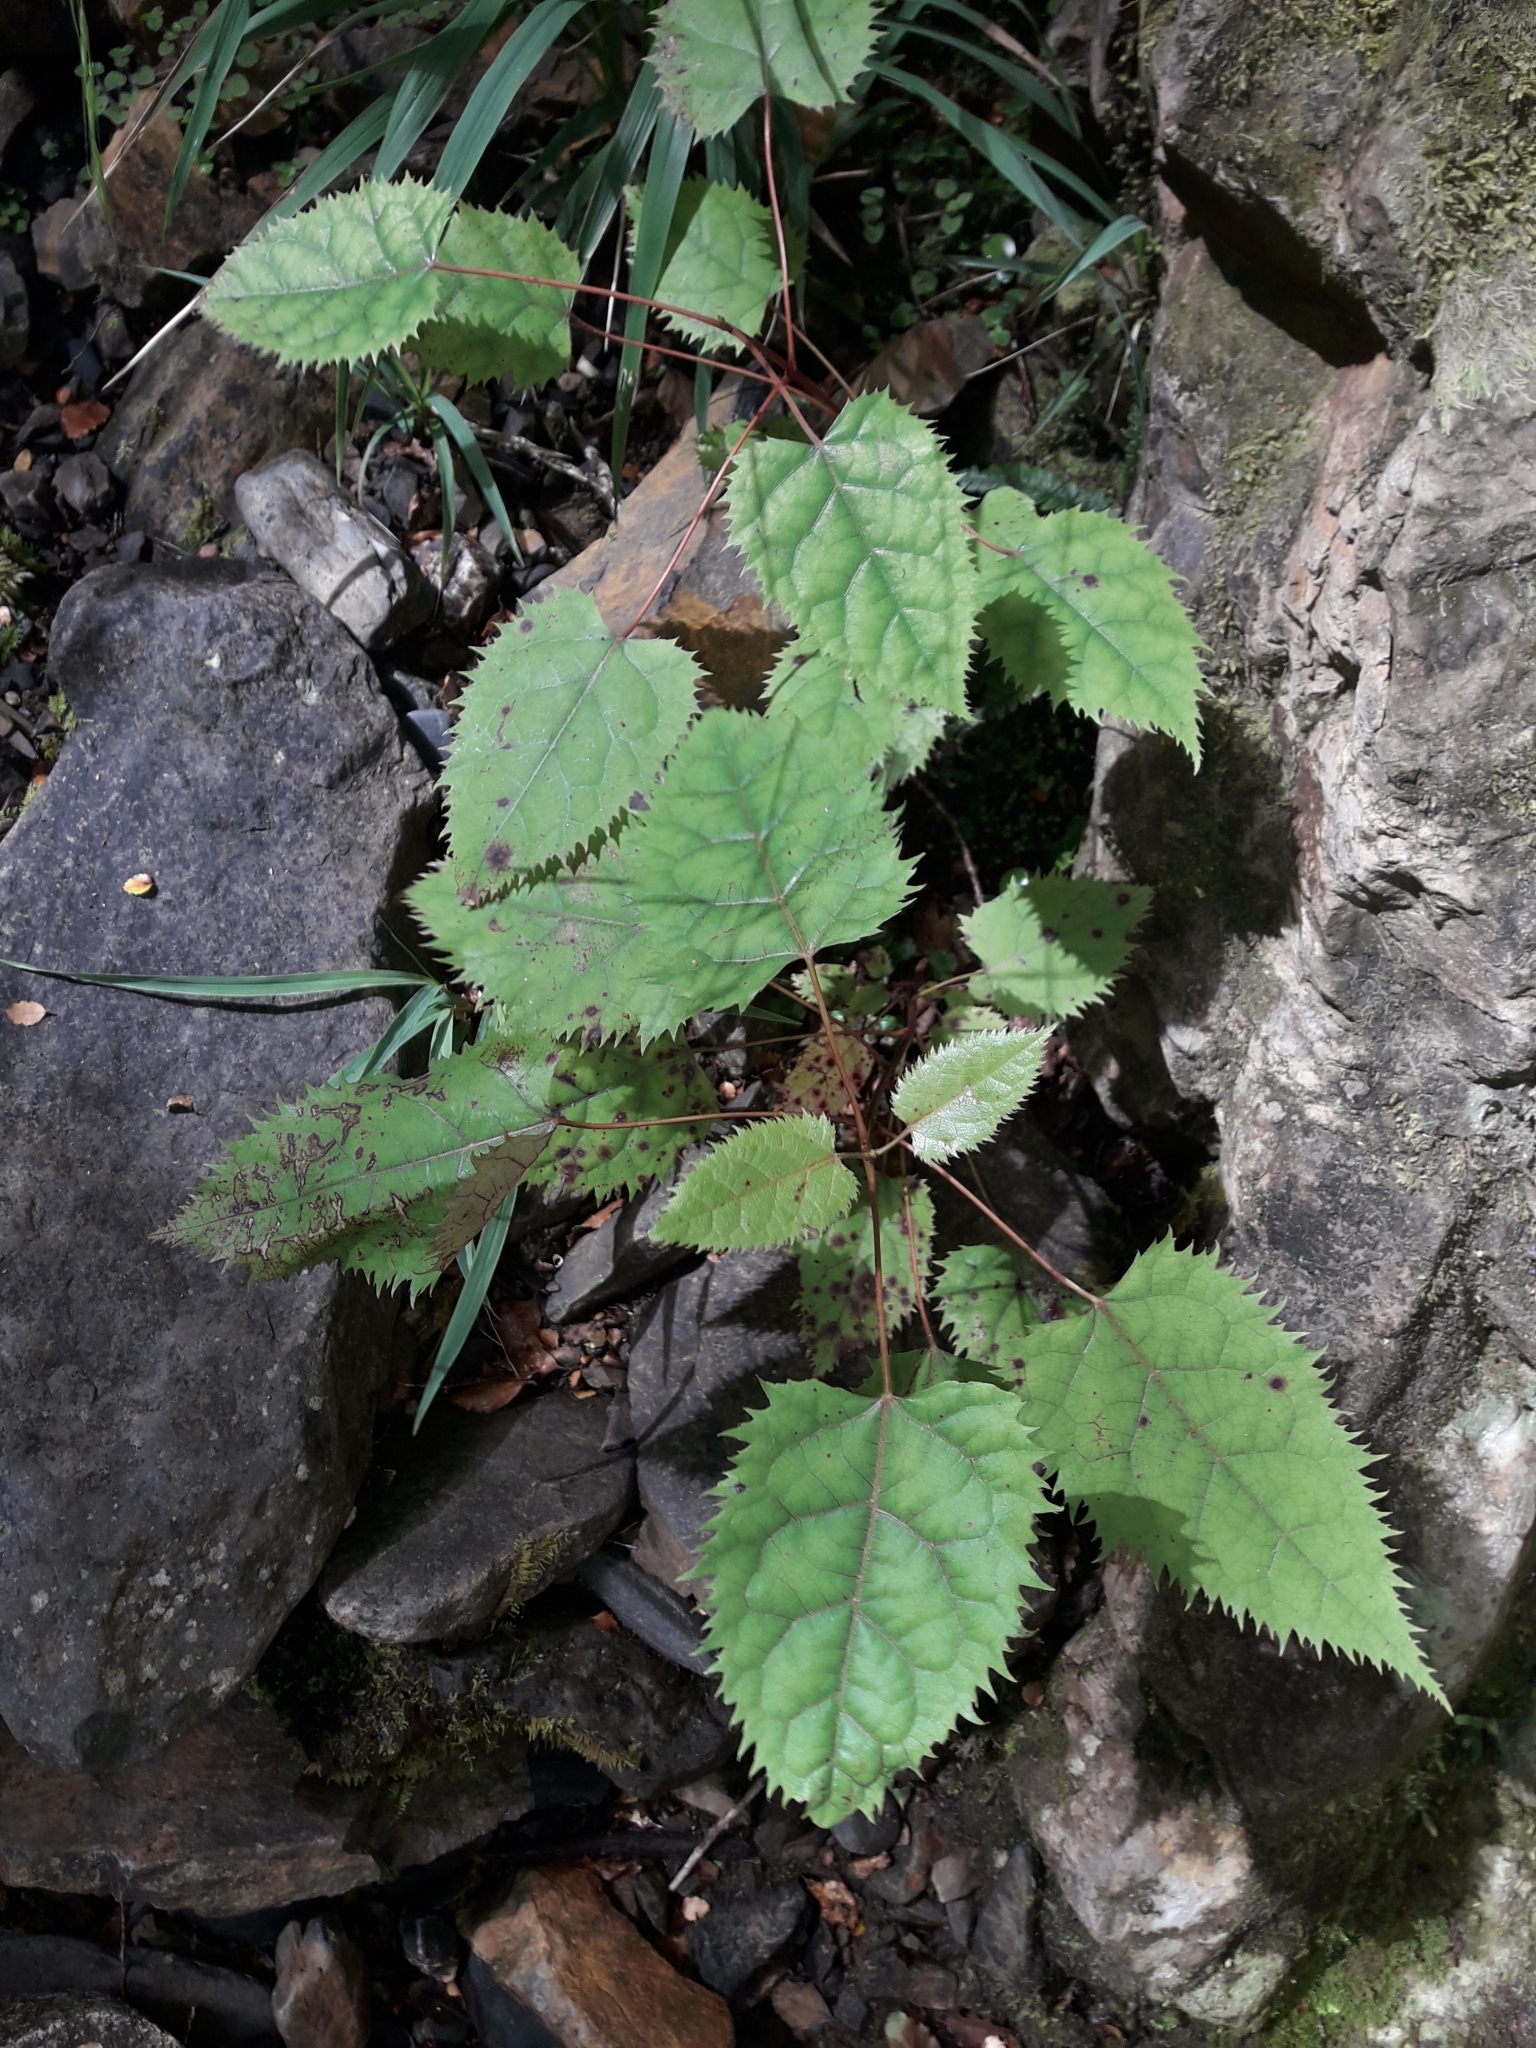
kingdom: Plantae
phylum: Tracheophyta
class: Magnoliopsida
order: Oxalidales
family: Elaeocarpaceae
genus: Aristotelia
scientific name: Aristotelia serrata
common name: New zealand wineberry
